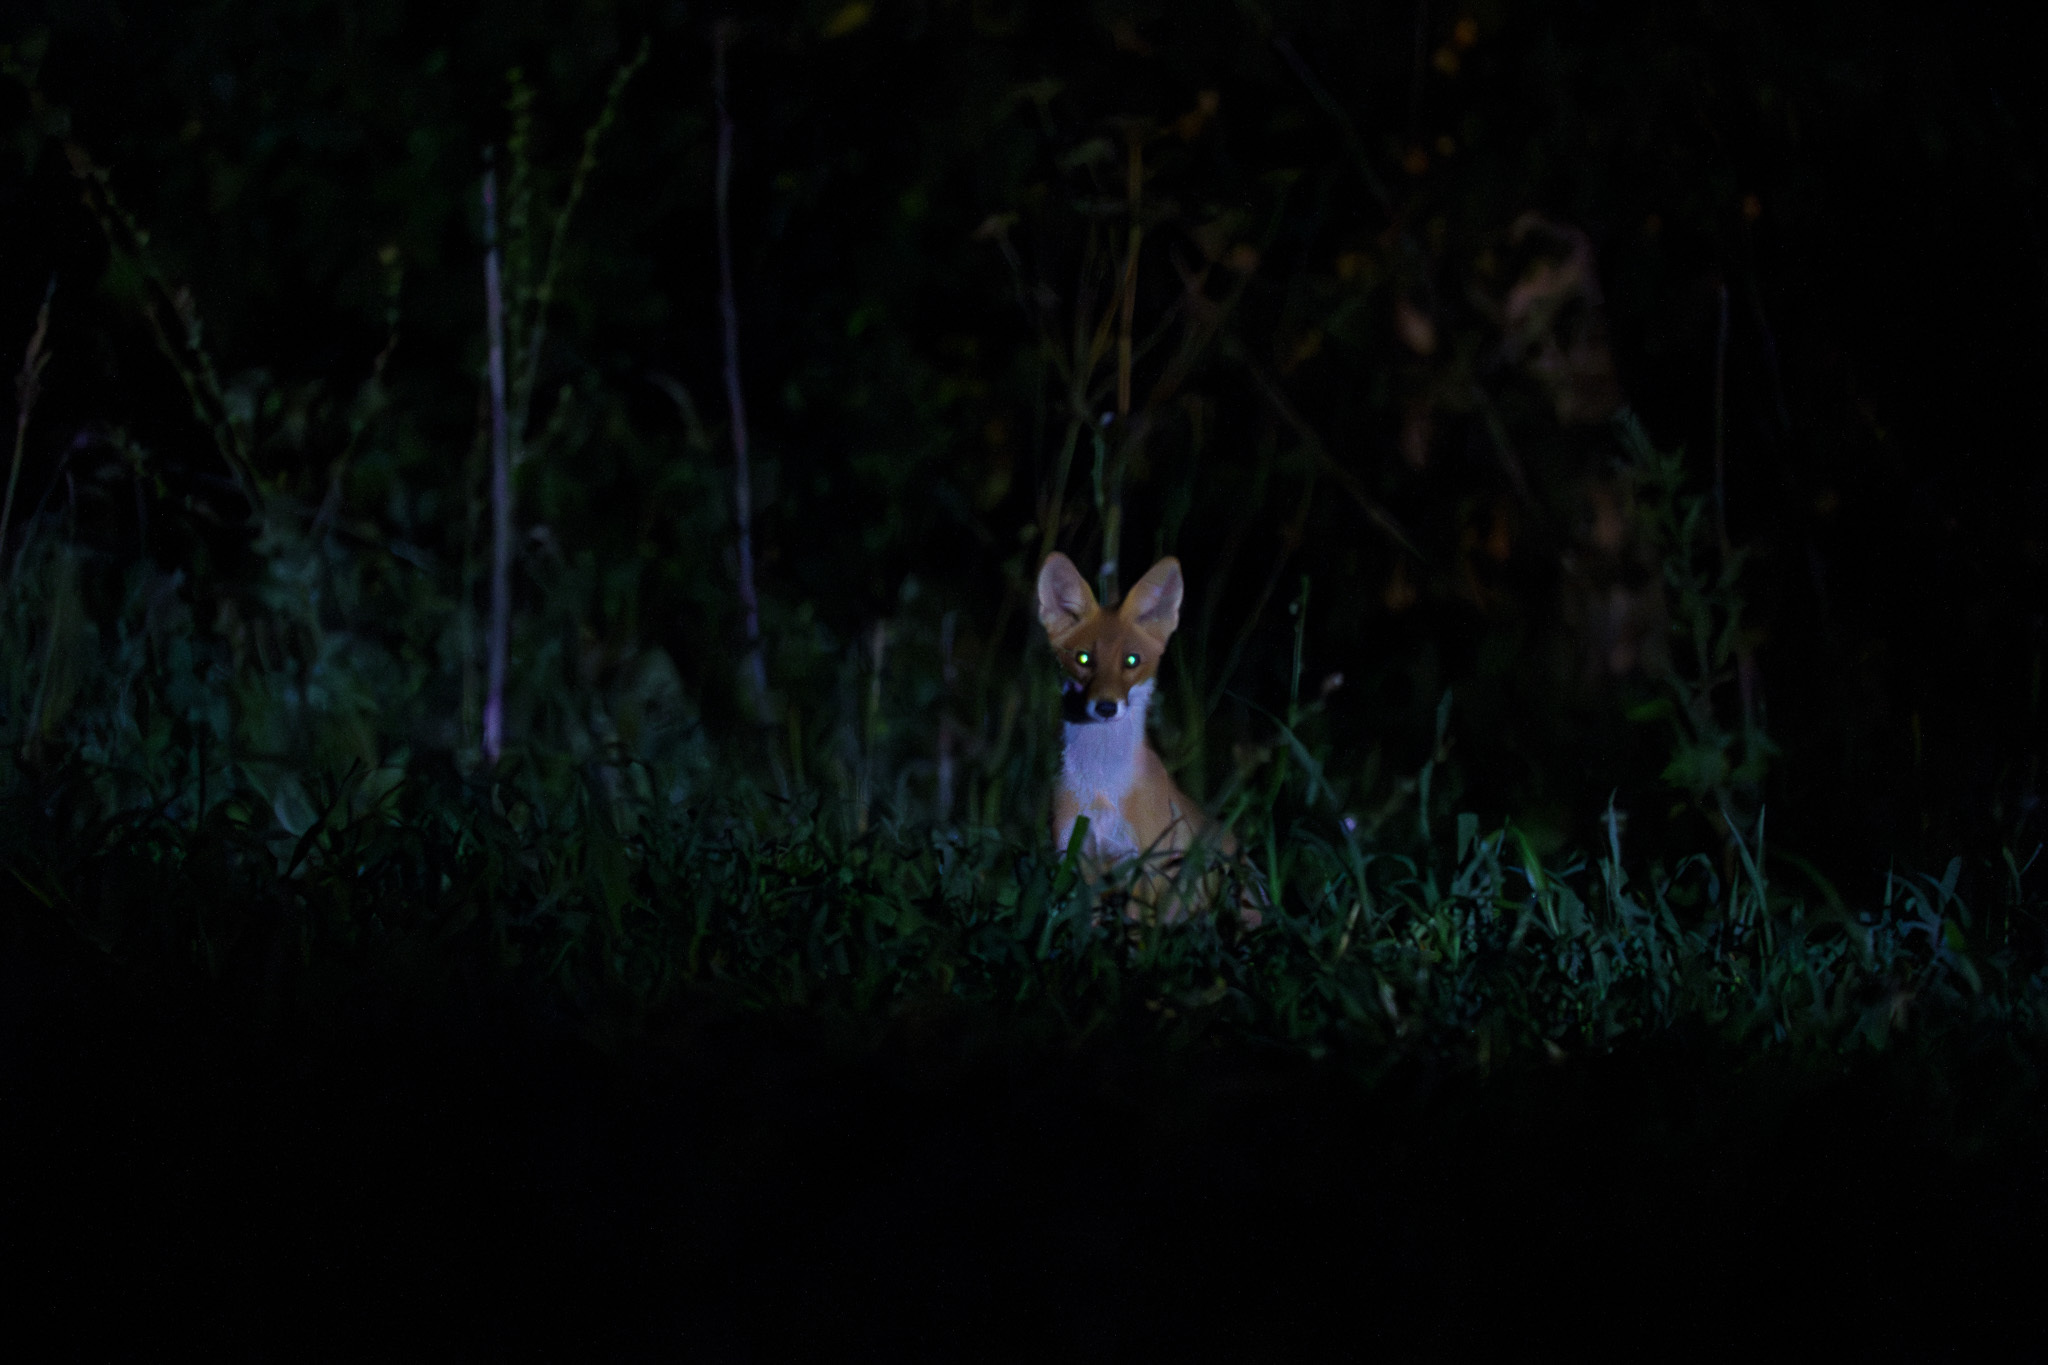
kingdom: Animalia
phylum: Chordata
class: Mammalia
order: Carnivora
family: Canidae
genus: Vulpes
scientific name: Vulpes vulpes
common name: Red fox
